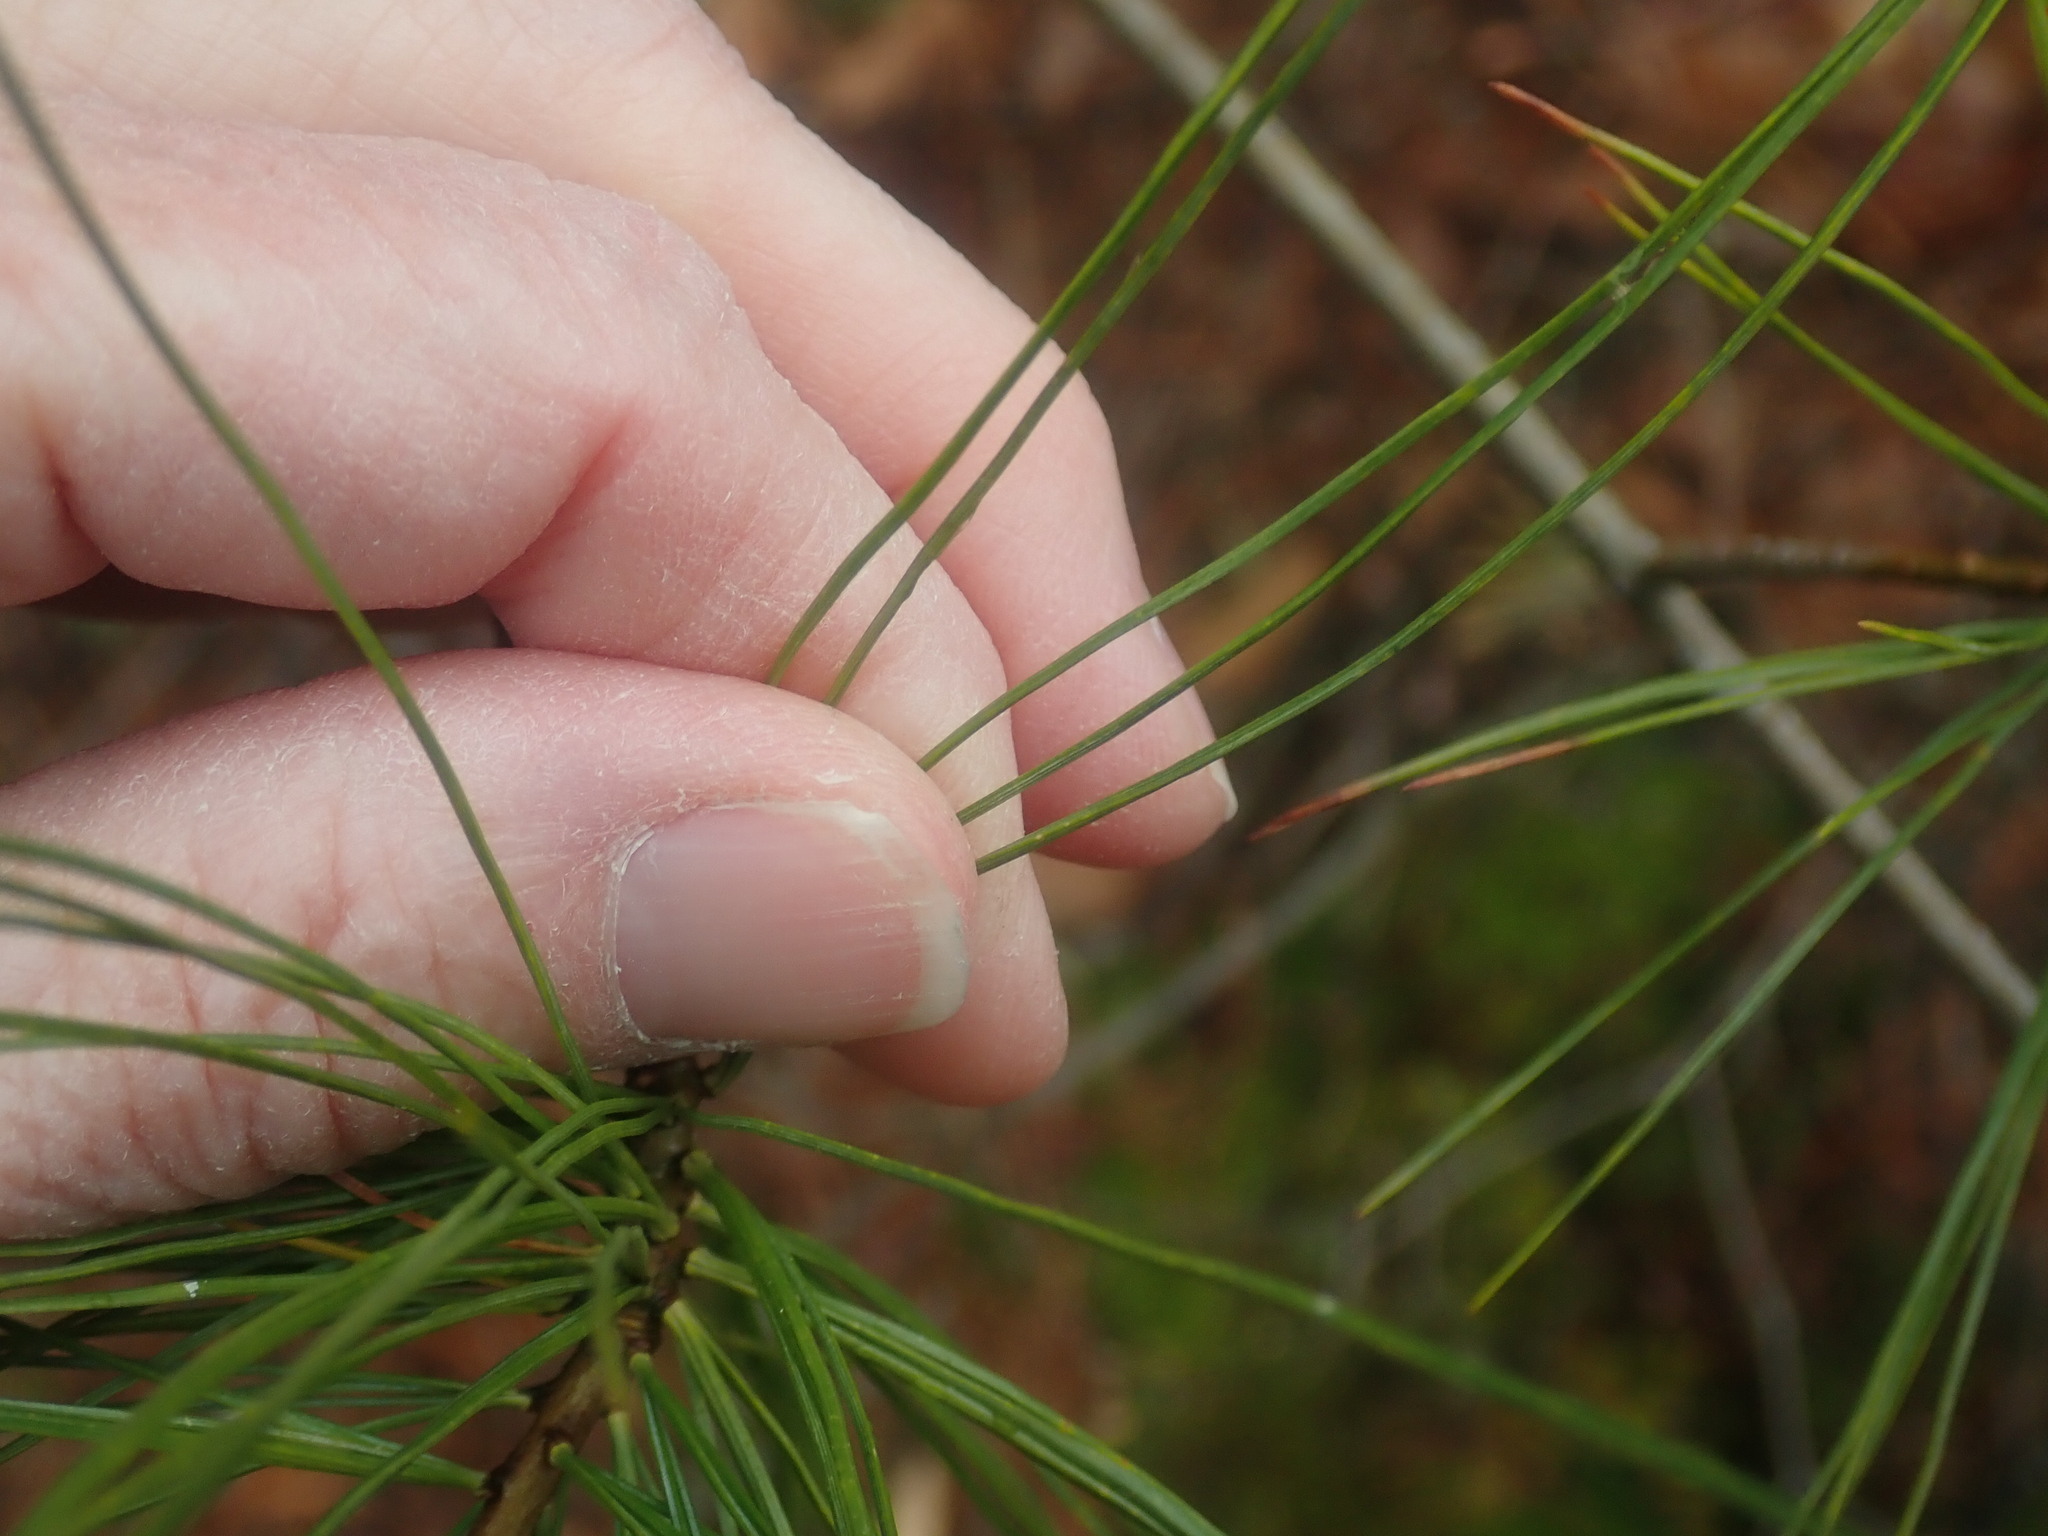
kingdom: Plantae
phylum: Tracheophyta
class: Pinopsida
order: Pinales
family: Pinaceae
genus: Pinus
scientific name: Pinus strobus
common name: Weymouth pine
